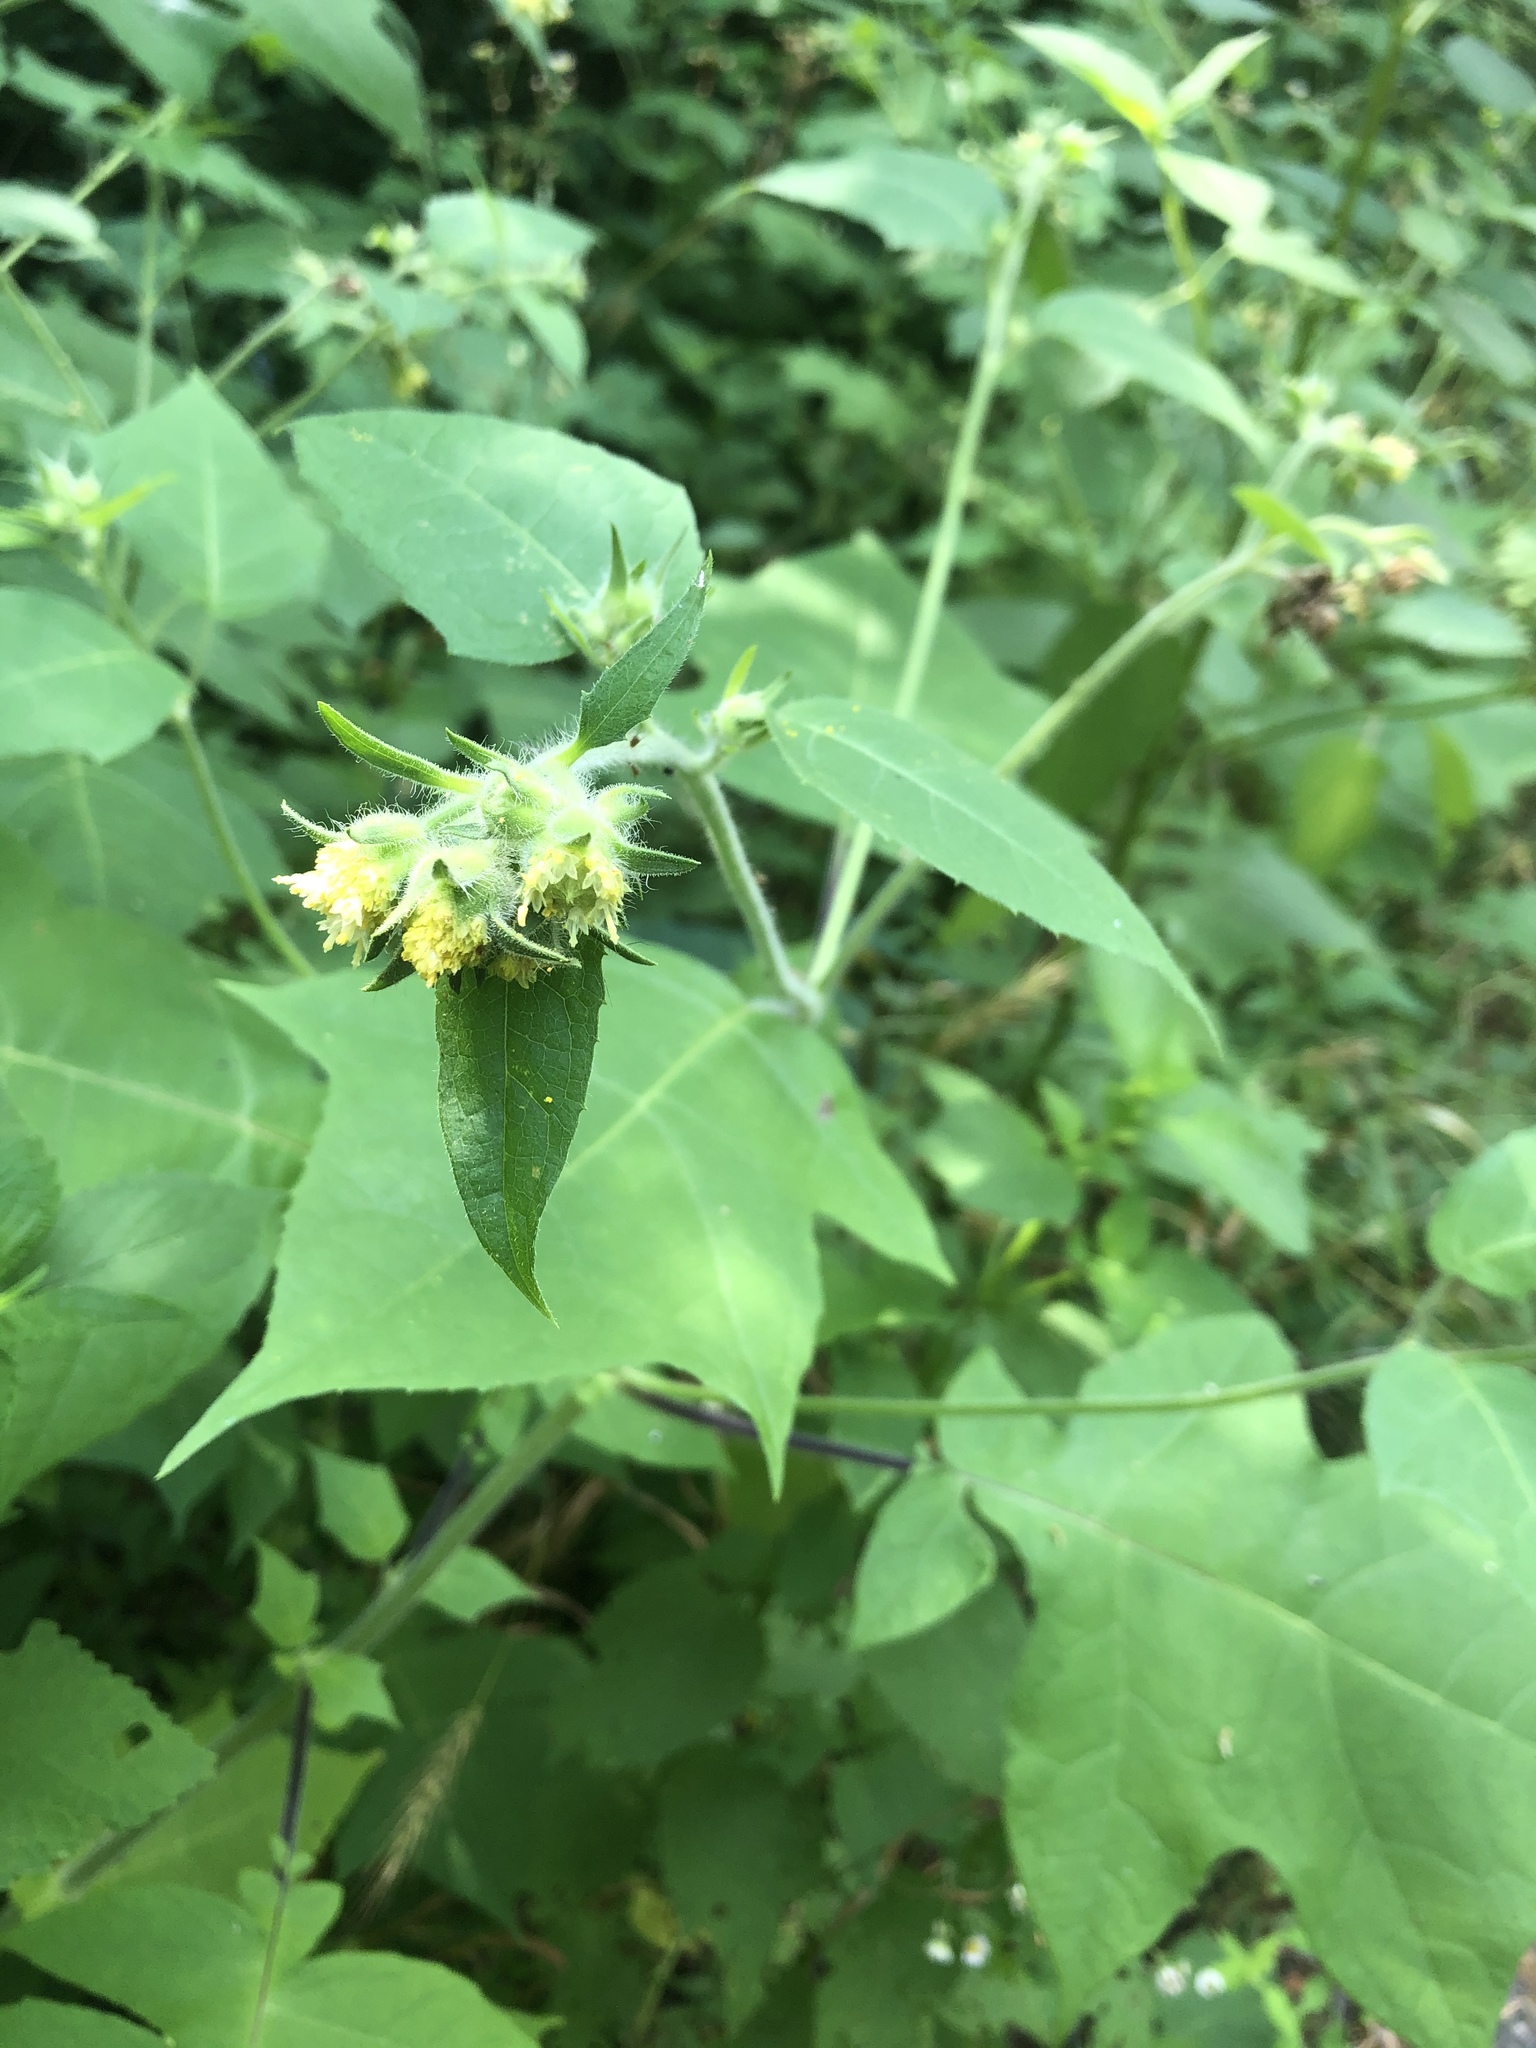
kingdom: Plantae
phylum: Tracheophyta
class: Magnoliopsida
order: Asterales
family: Asteraceae
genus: Polymnia
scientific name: Polymnia canadensis
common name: Pale-flowered leafcup
